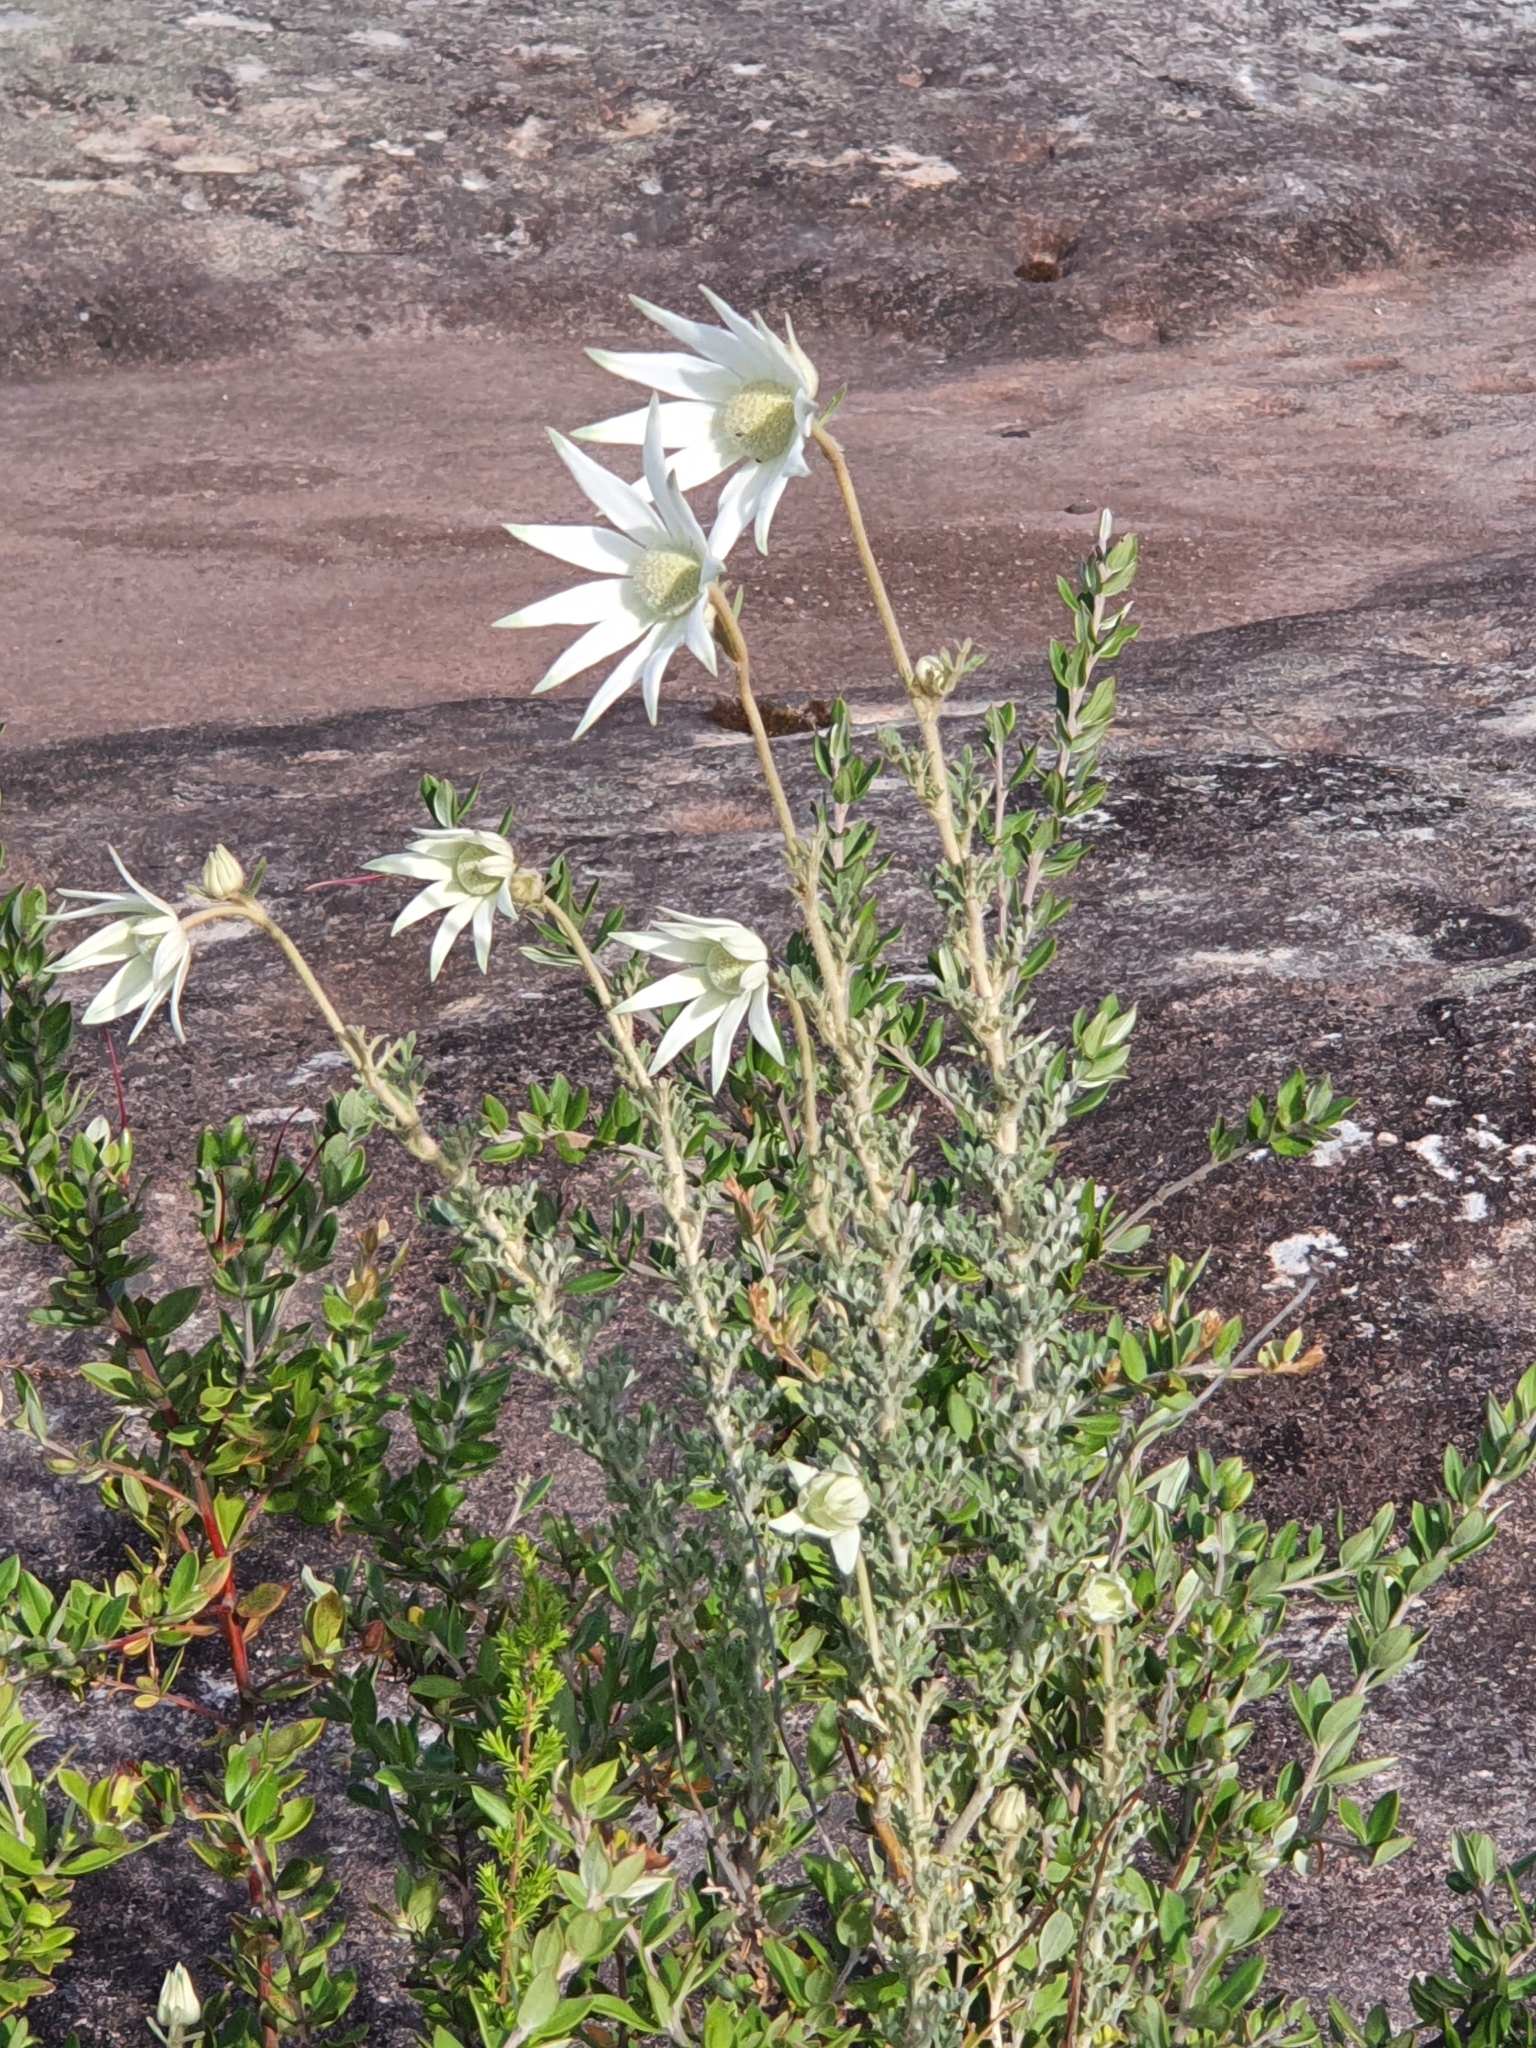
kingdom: Plantae
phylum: Tracheophyta
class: Magnoliopsida
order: Apiales
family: Apiaceae
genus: Actinotus
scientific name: Actinotus helianthi
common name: Flannel-flower
